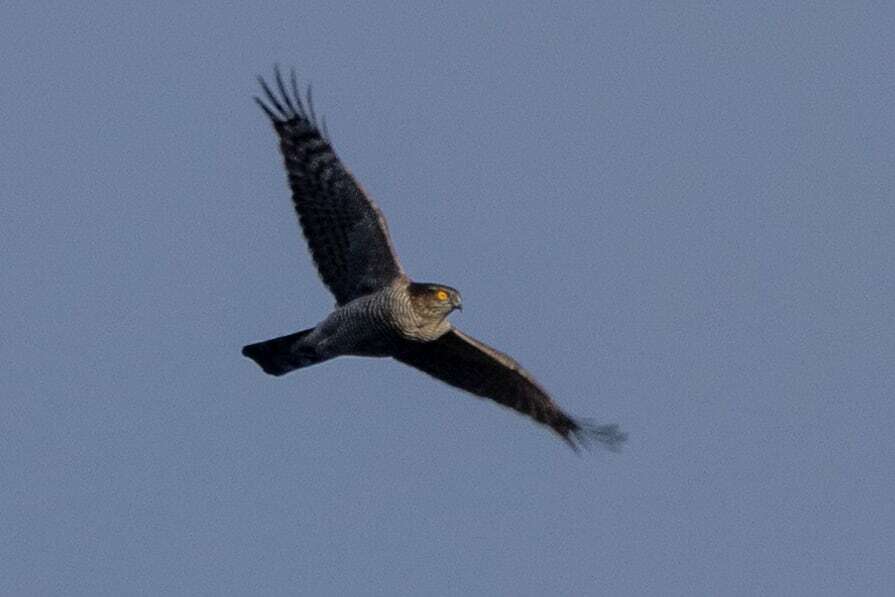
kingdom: Animalia
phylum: Chordata
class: Aves
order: Accipitriformes
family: Accipitridae
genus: Accipiter
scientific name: Accipiter nisus
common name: Eurasian sparrowhawk
